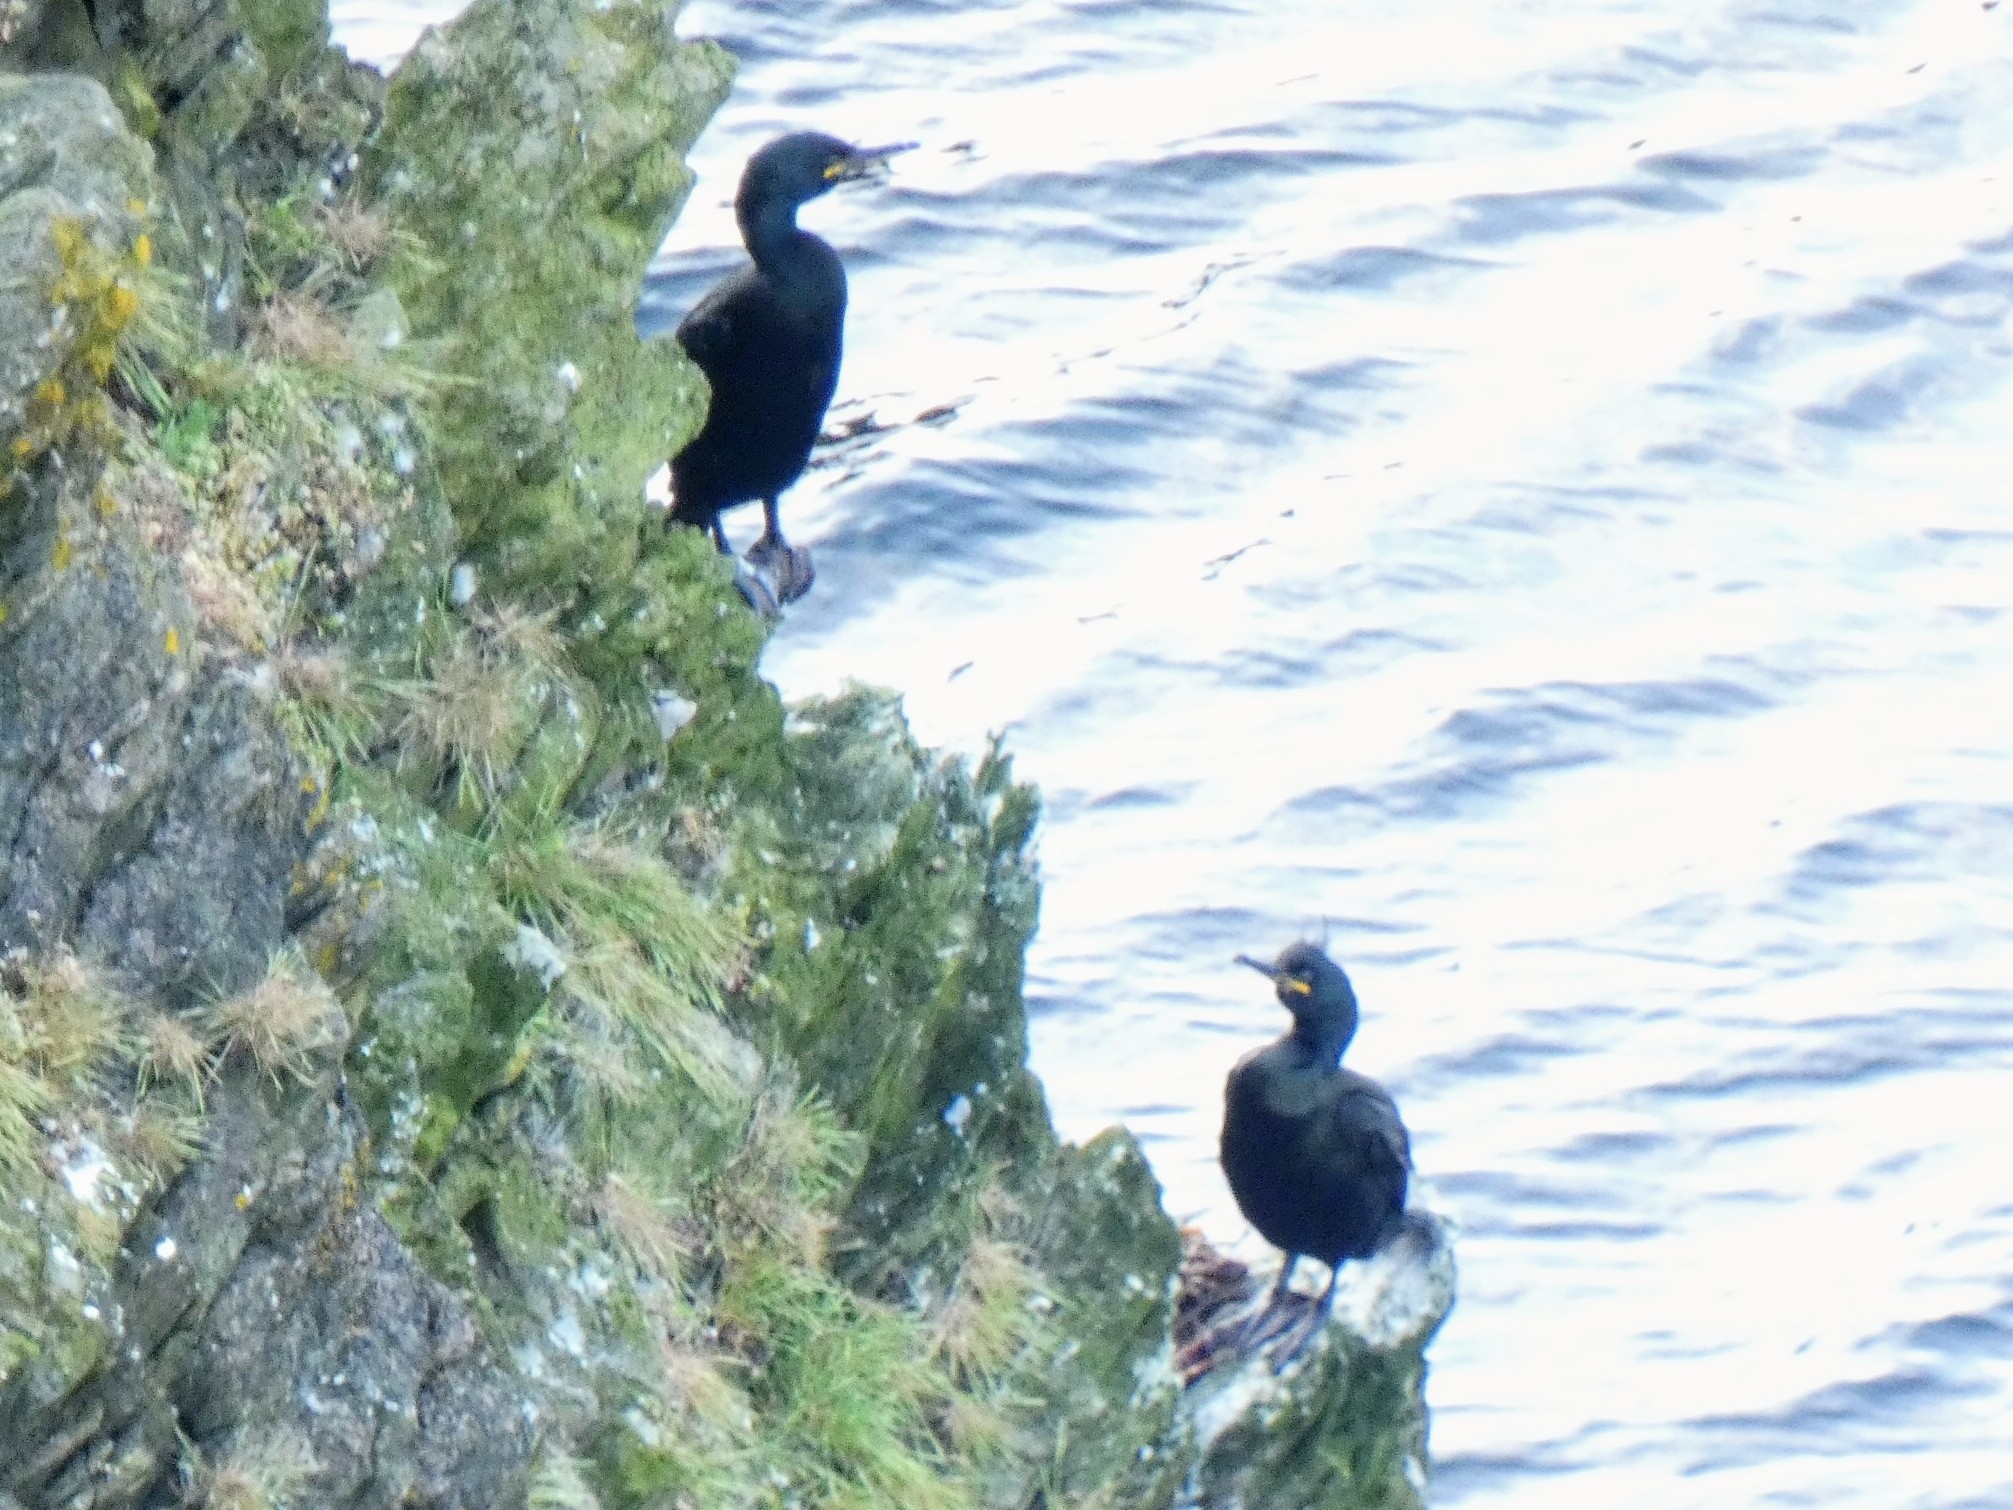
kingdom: Animalia
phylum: Chordata
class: Aves
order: Suliformes
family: Phalacrocoracidae
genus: Phalacrocorax
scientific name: Phalacrocorax aristotelis
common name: European shag
